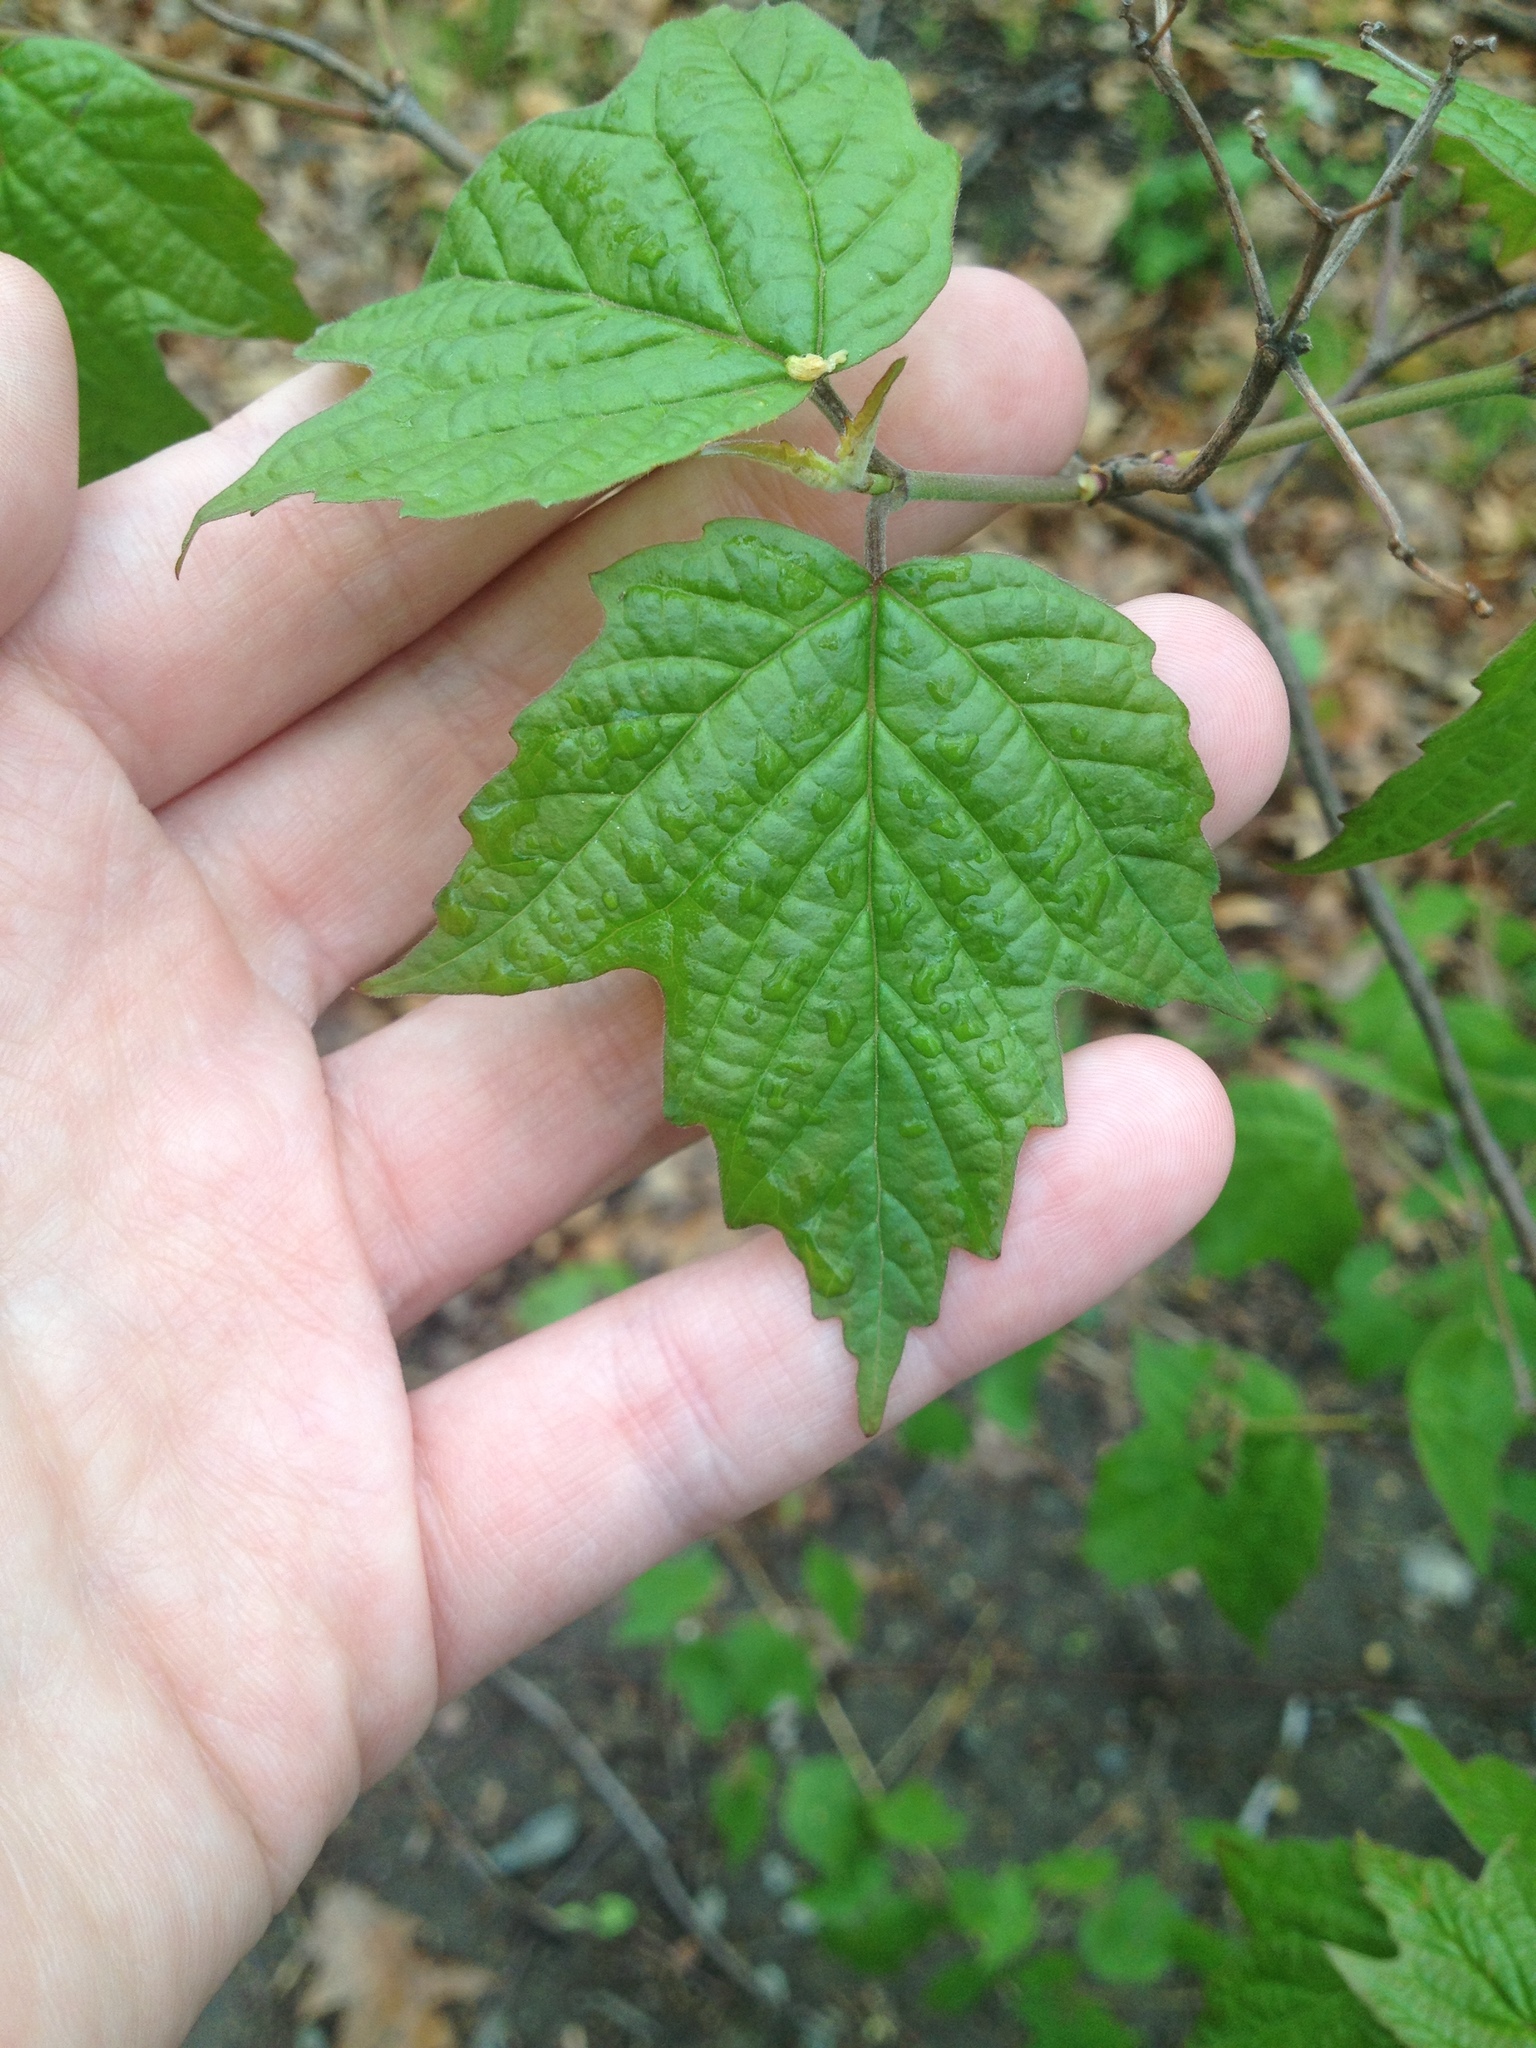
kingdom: Plantae
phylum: Tracheophyta
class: Magnoliopsida
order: Dipsacales
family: Viburnaceae
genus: Viburnum
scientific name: Viburnum acerifolium
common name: Dockmackie
